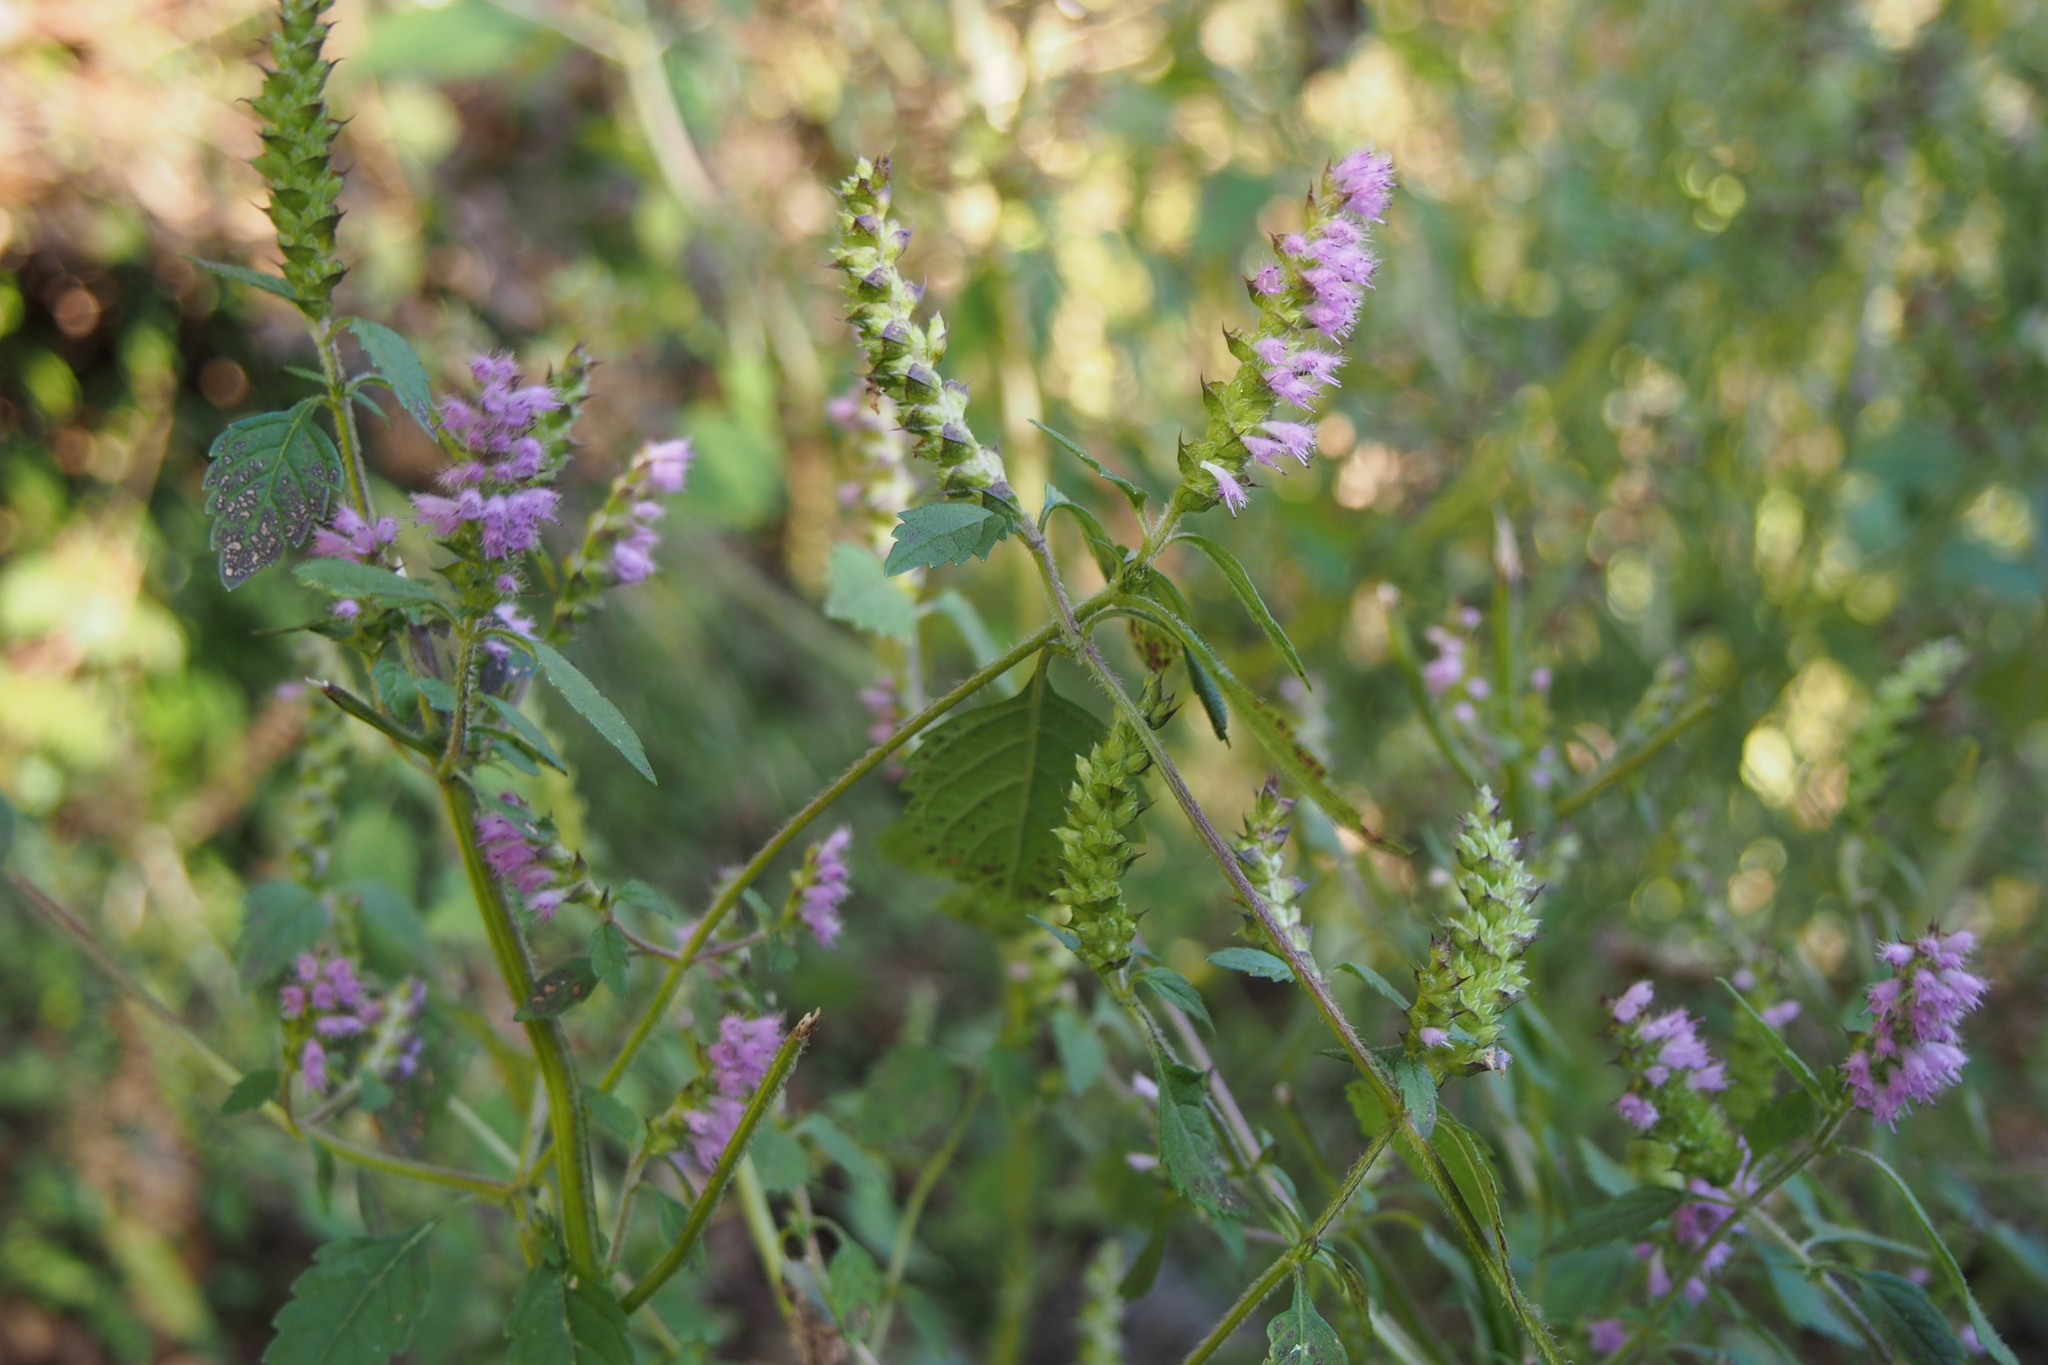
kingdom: Plantae
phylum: Tracheophyta
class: Magnoliopsida
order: Lamiales
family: Lamiaceae
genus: Elsholtzia
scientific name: Elsholtzia ciliata
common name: Ciliate elsholtzia
